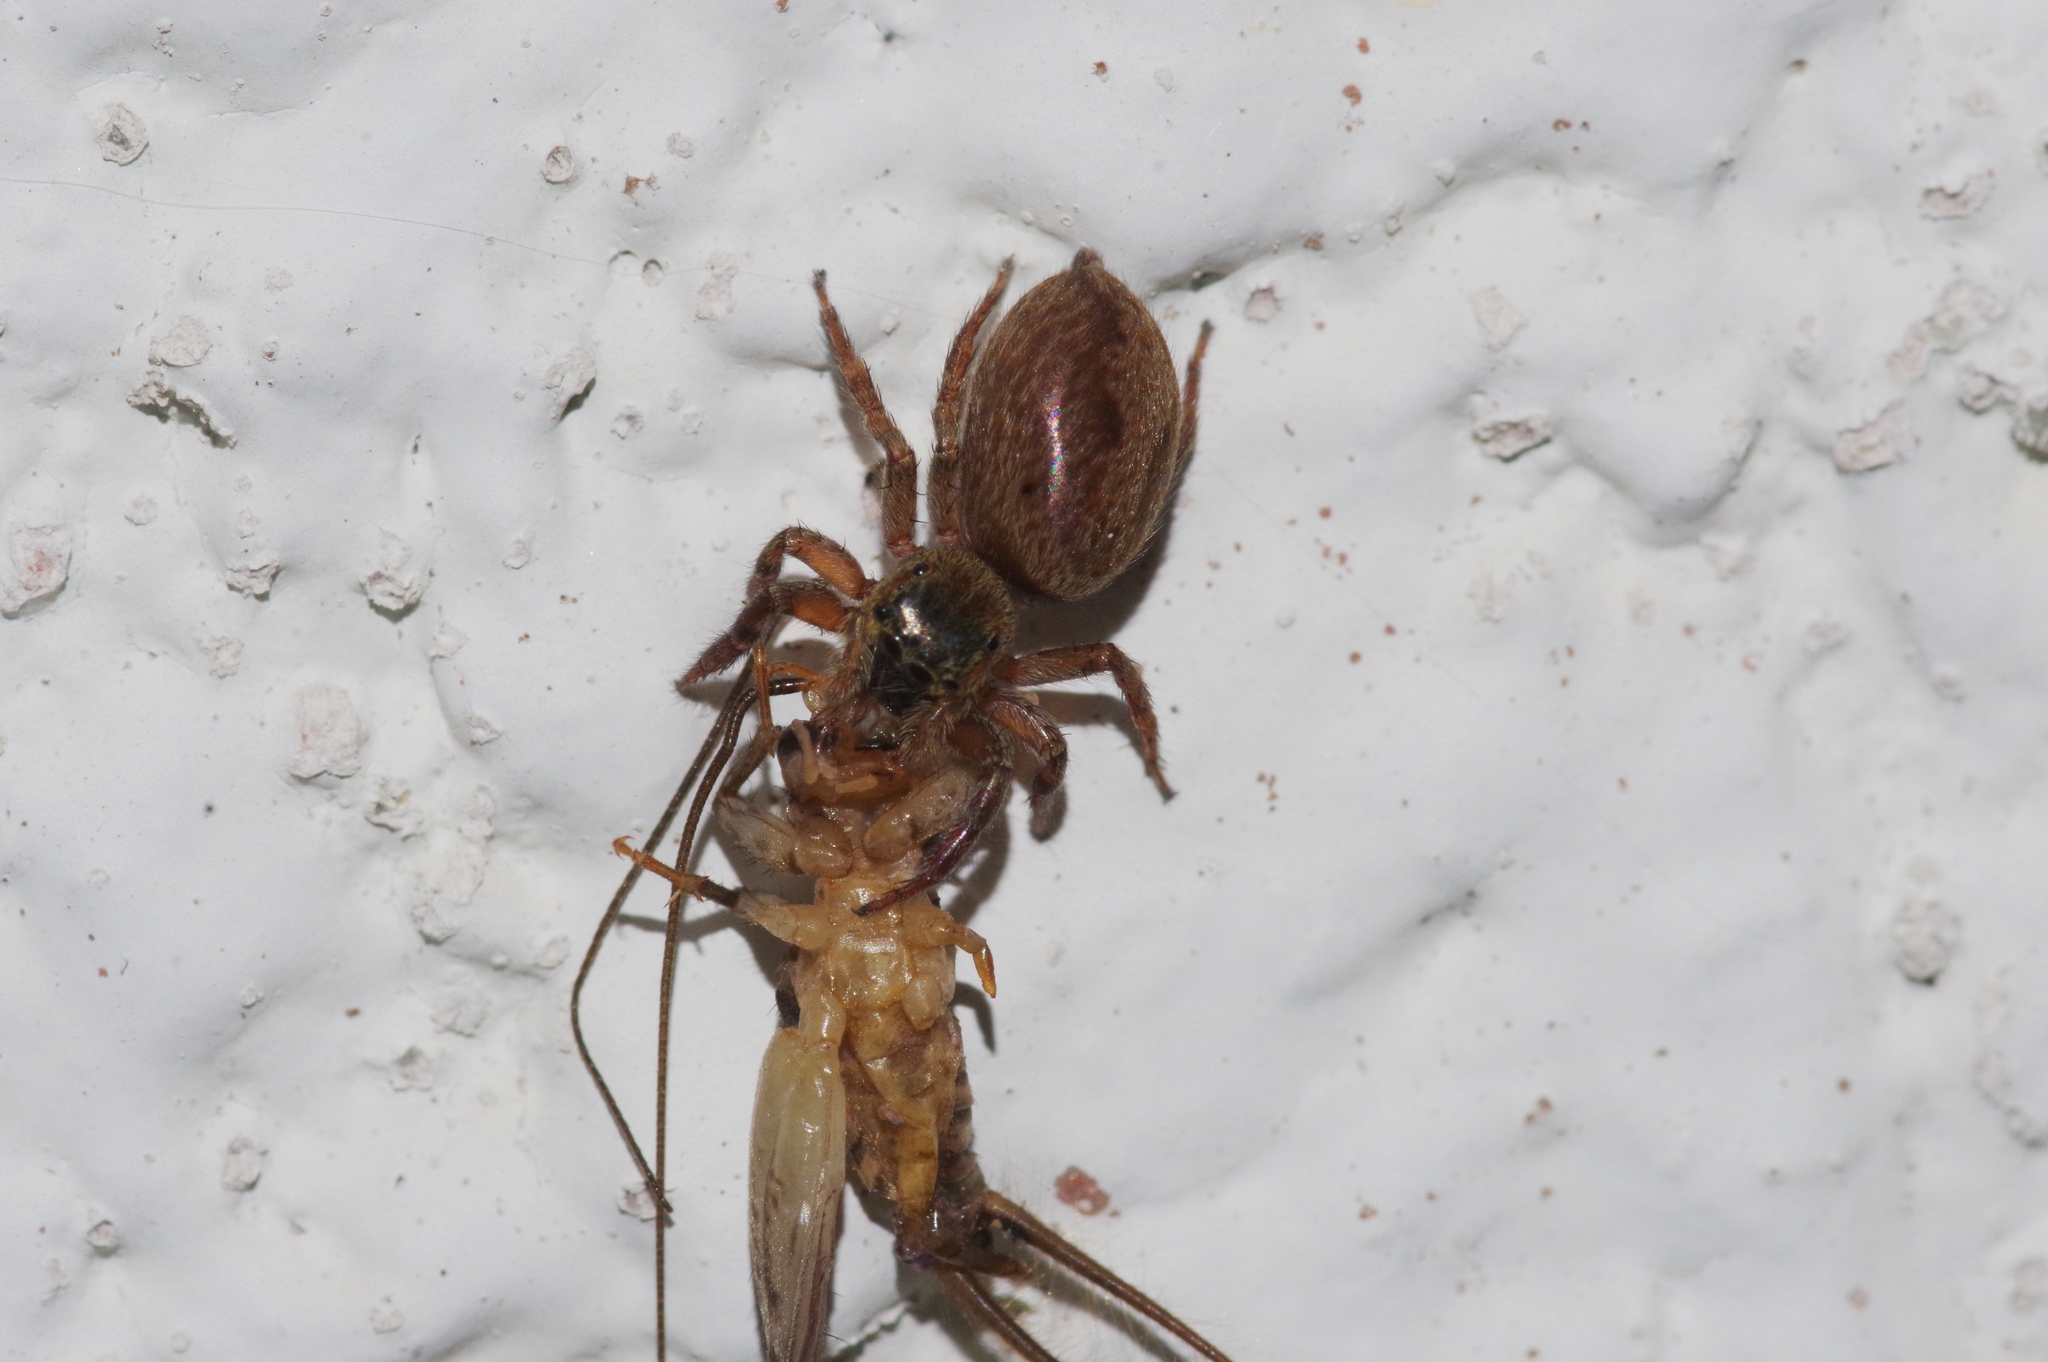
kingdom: Animalia
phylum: Arthropoda
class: Insecta
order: Orthoptera
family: Gryllidae
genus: Gryllodes
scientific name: Gryllodes sigillatus
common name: Tropical house cricket
